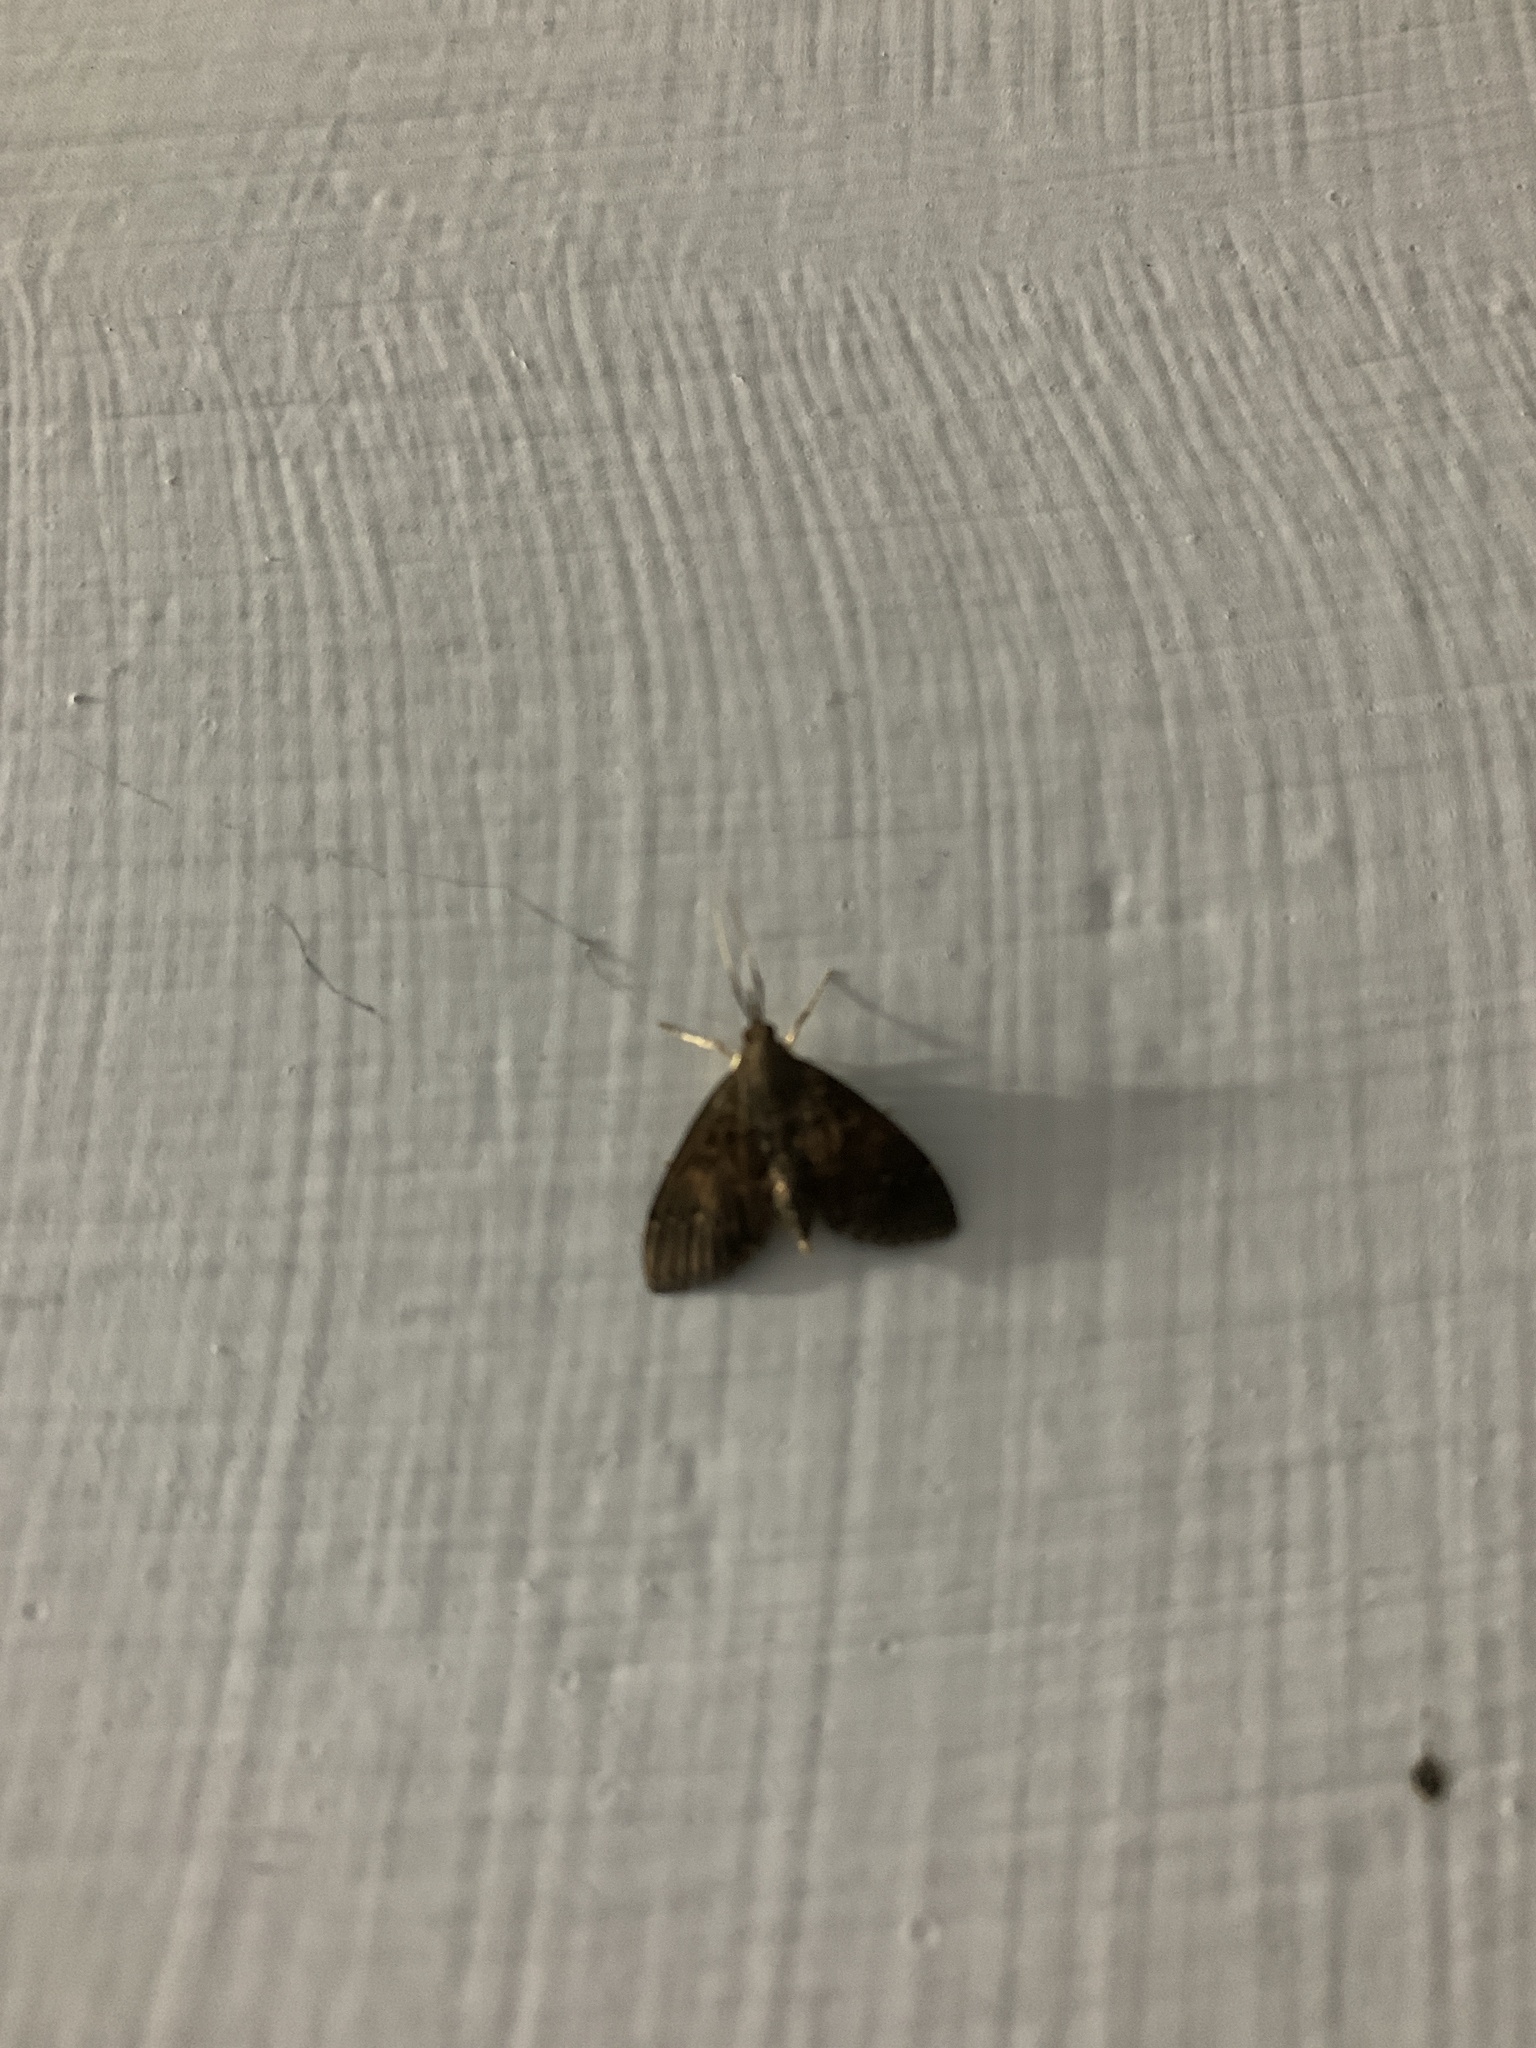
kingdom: Animalia
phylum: Arthropoda
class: Insecta
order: Lepidoptera
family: Crambidae
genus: Camptomastix
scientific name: Camptomastix hisbonalis
